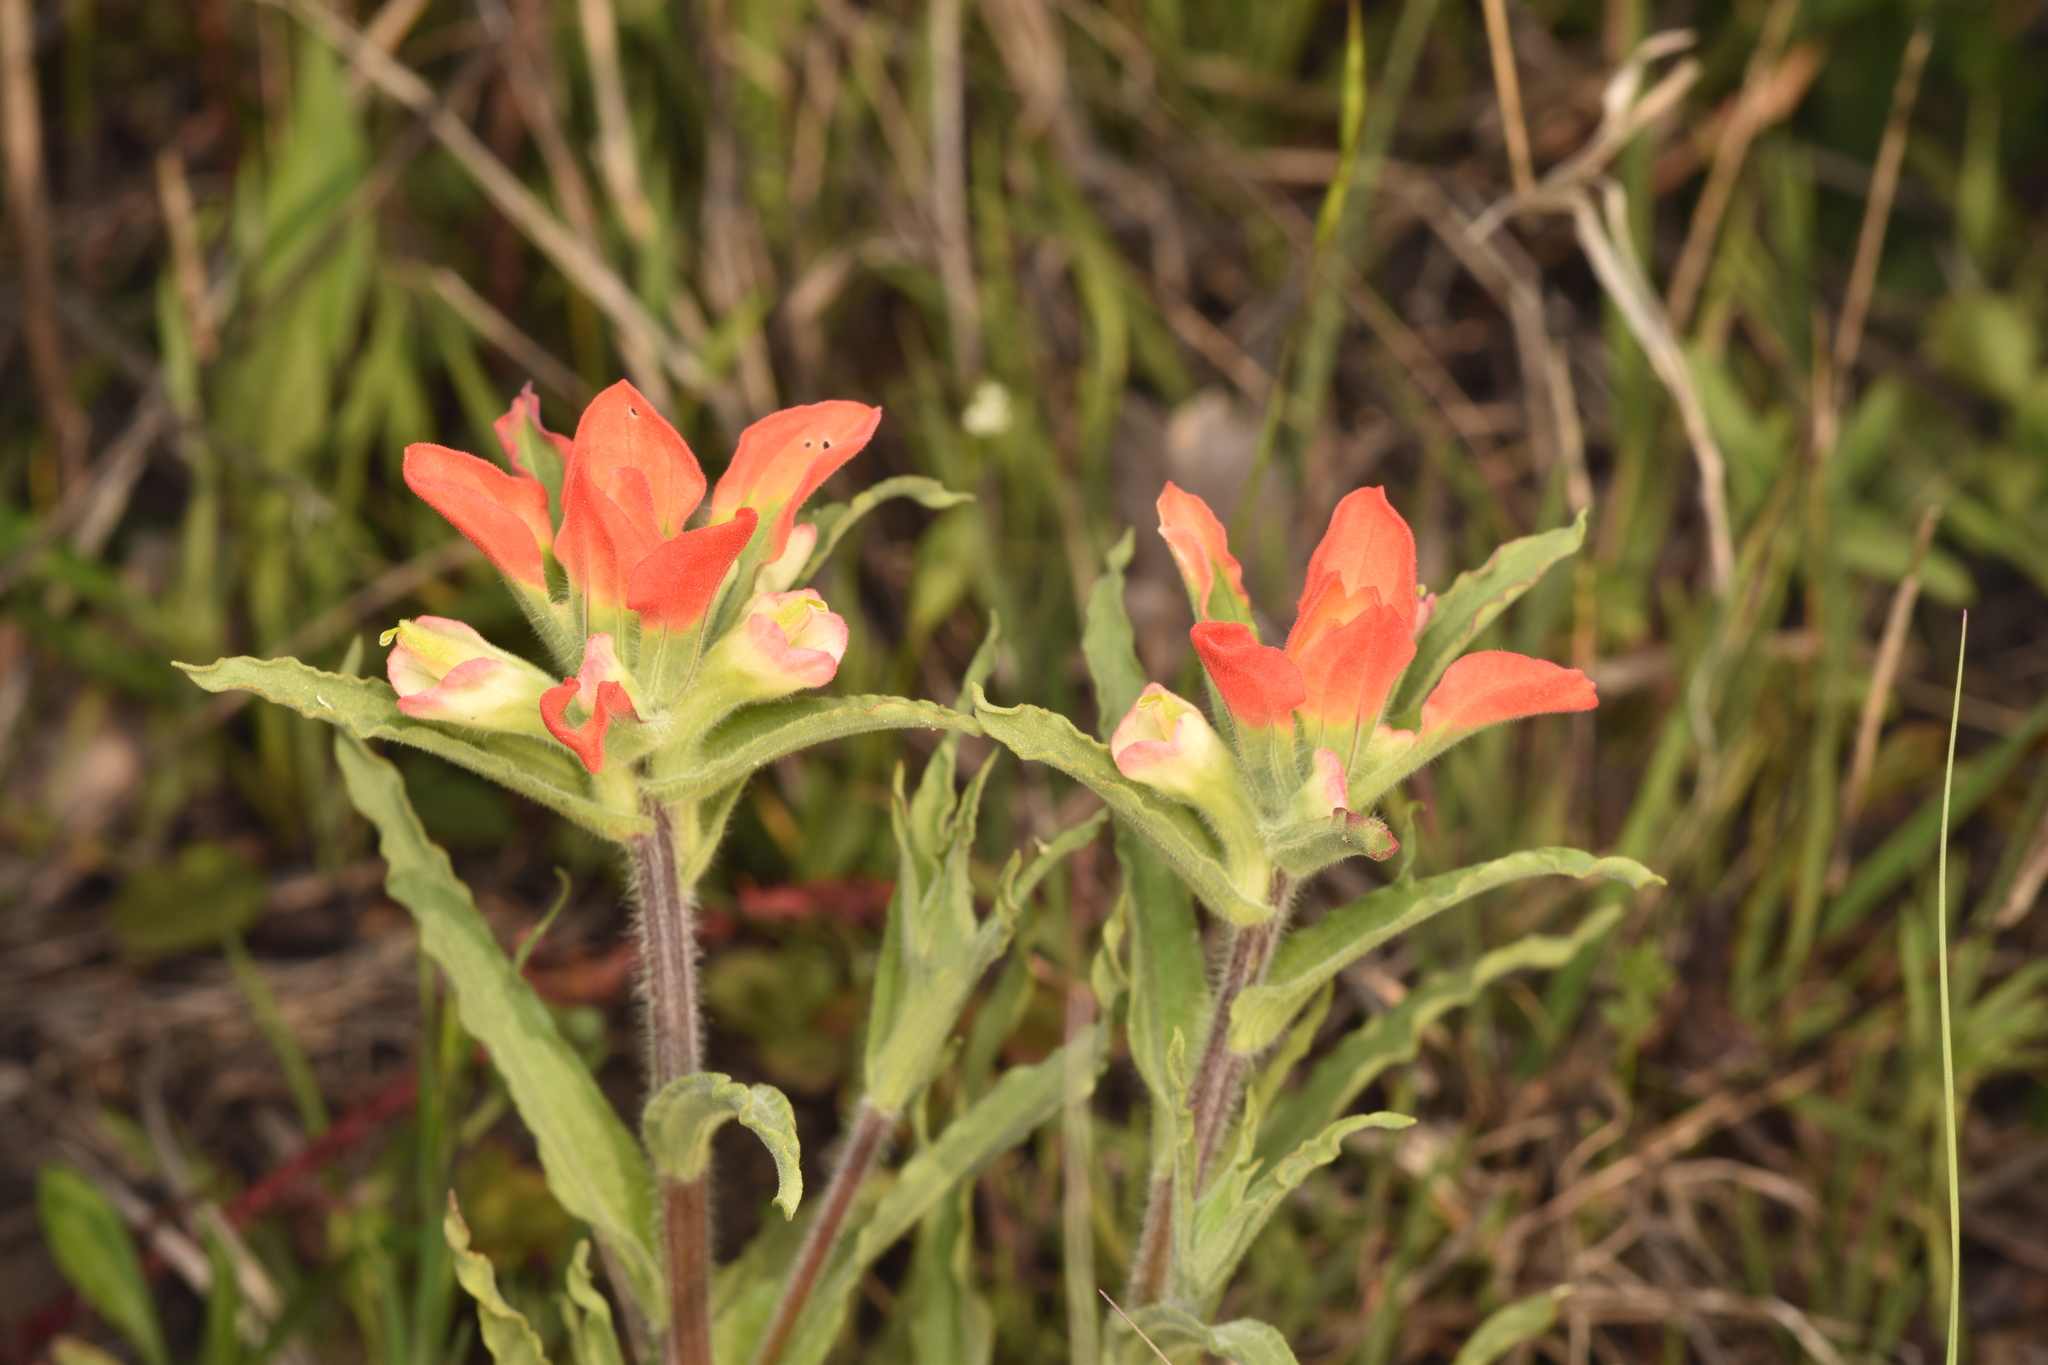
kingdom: Plantae
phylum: Tracheophyta
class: Magnoliopsida
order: Lamiales
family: Orobanchaceae
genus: Castilleja
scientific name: Castilleja indivisa
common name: Texas paintbrush
